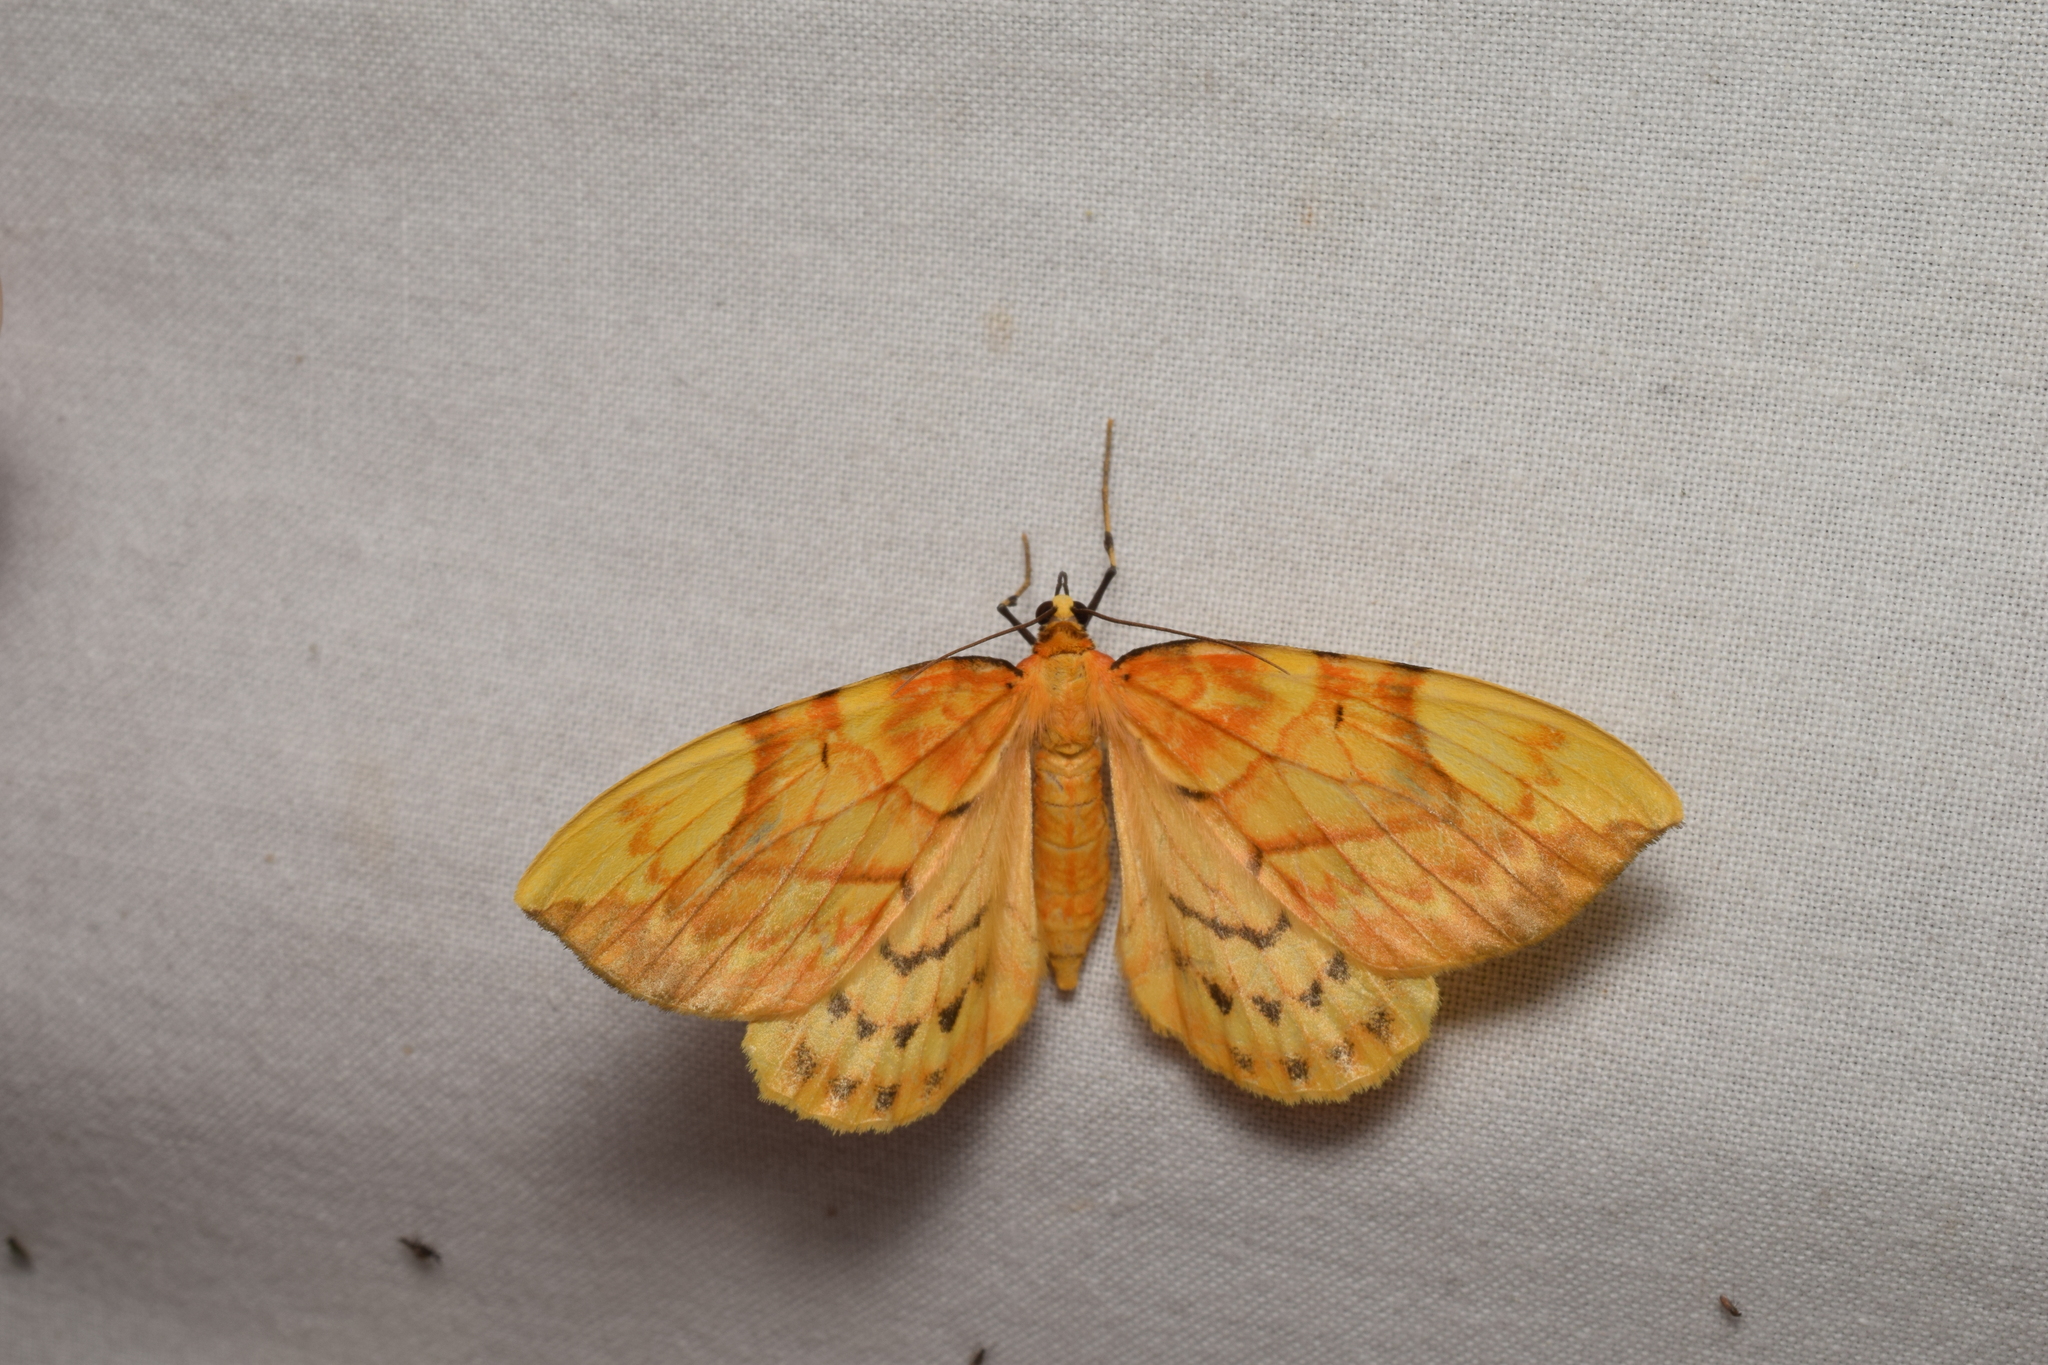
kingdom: Animalia
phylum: Arthropoda
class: Insecta
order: Lepidoptera
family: Geometridae
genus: Gandaritis
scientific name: Gandaritis fixseni
